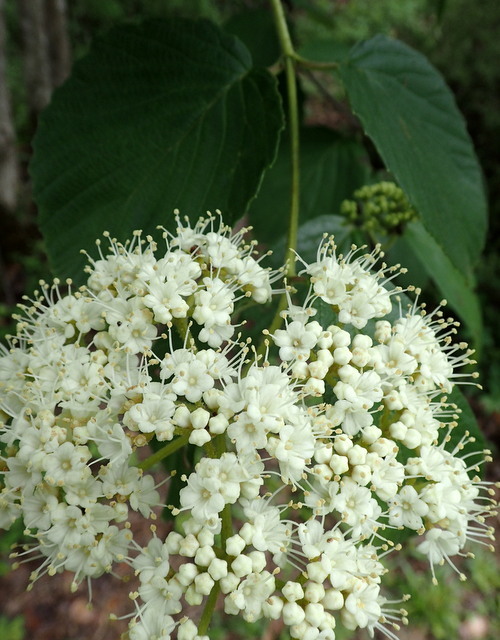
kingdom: Plantae
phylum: Tracheophyta
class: Magnoliopsida
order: Dipsacales
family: Viburnaceae
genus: Viburnum
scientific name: Viburnum scabrellum
